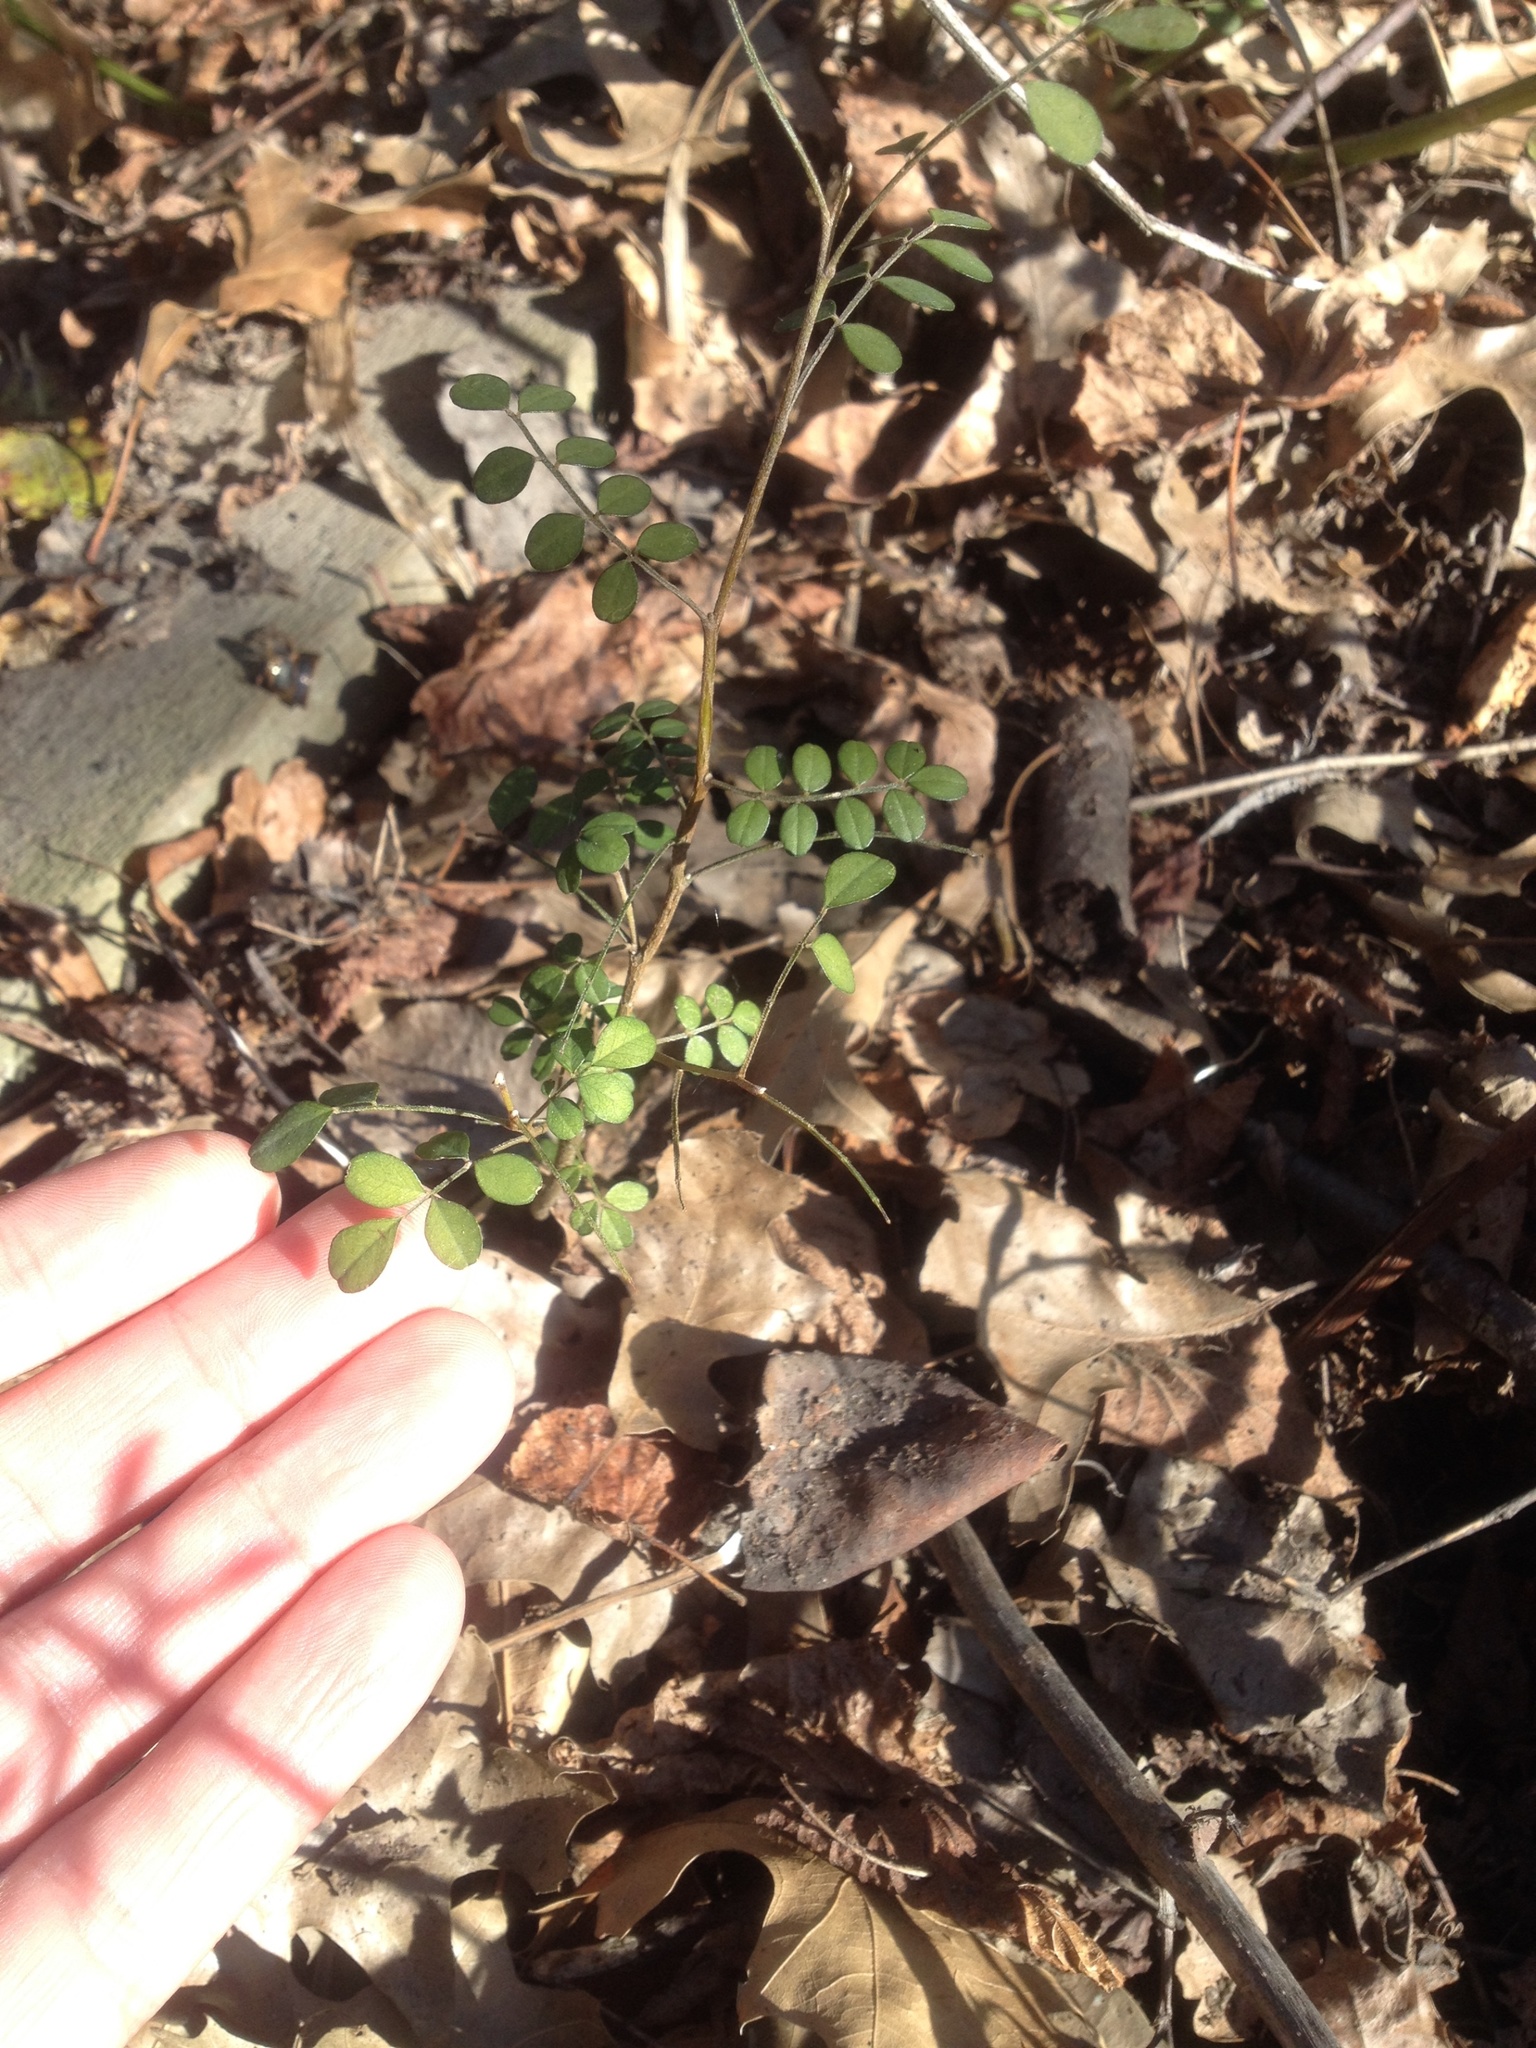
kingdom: Plantae
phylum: Tracheophyta
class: Magnoliopsida
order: Fabales
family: Fabaceae
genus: Sophora
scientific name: Sophora microphylla
